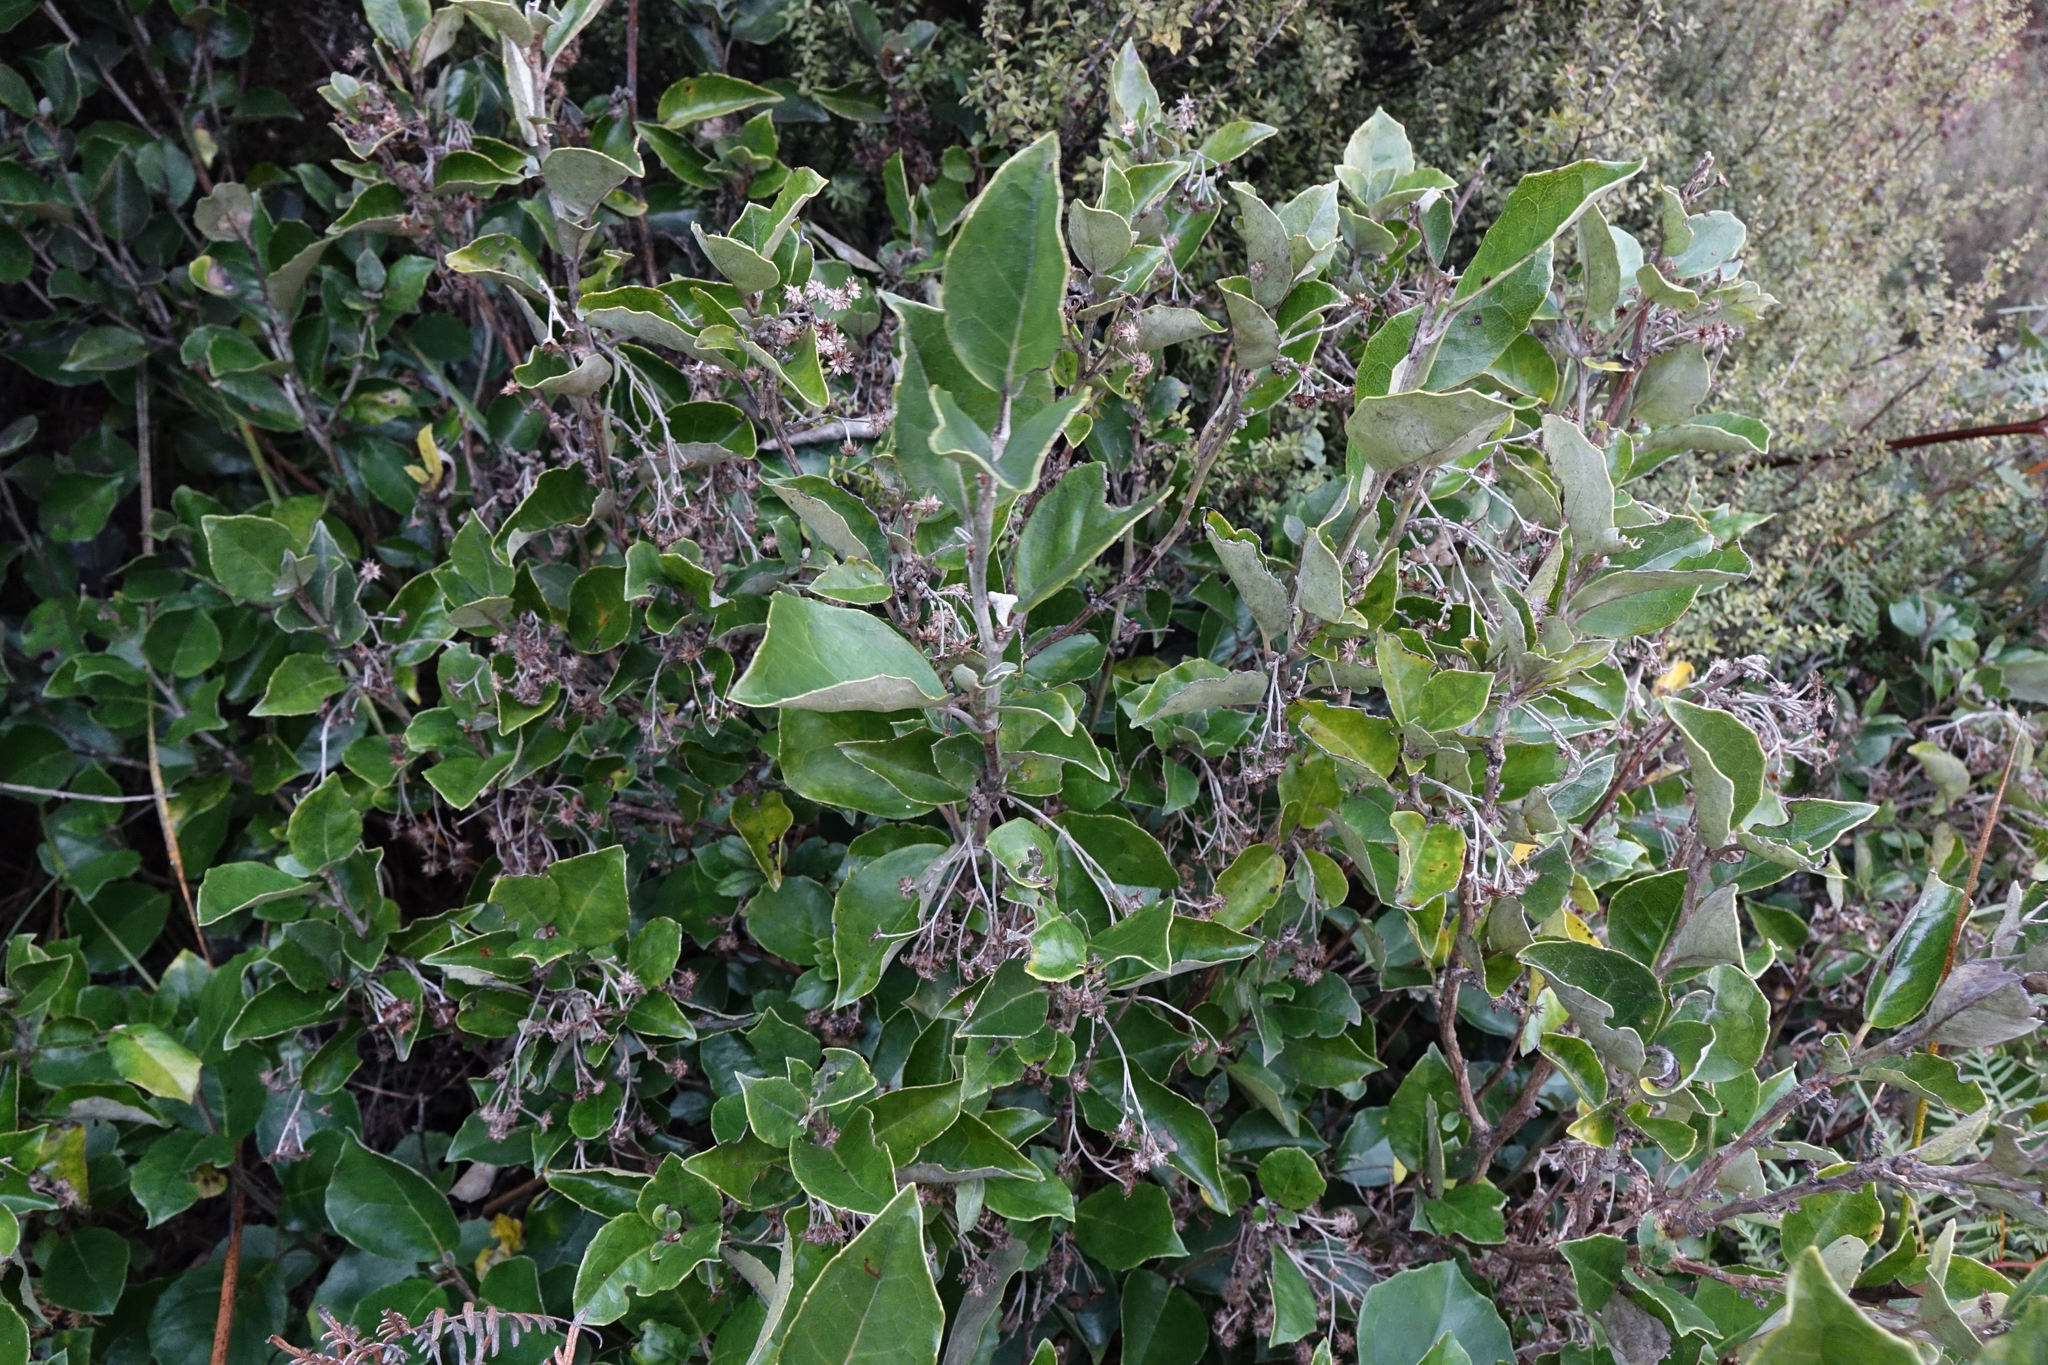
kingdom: Plantae
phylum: Tracheophyta
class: Magnoliopsida
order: Asterales
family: Asteraceae
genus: Olearia
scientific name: Olearia arborescens
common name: Glossy tree daisy
